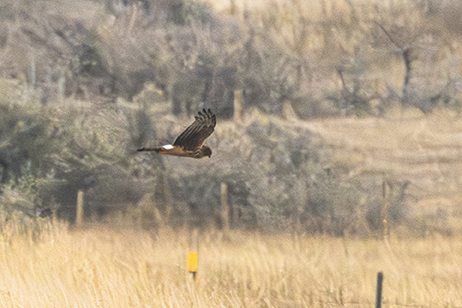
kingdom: Animalia
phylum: Chordata
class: Aves
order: Accipitriformes
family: Accipitridae
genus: Circus
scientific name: Circus cyaneus
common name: Hen harrier
